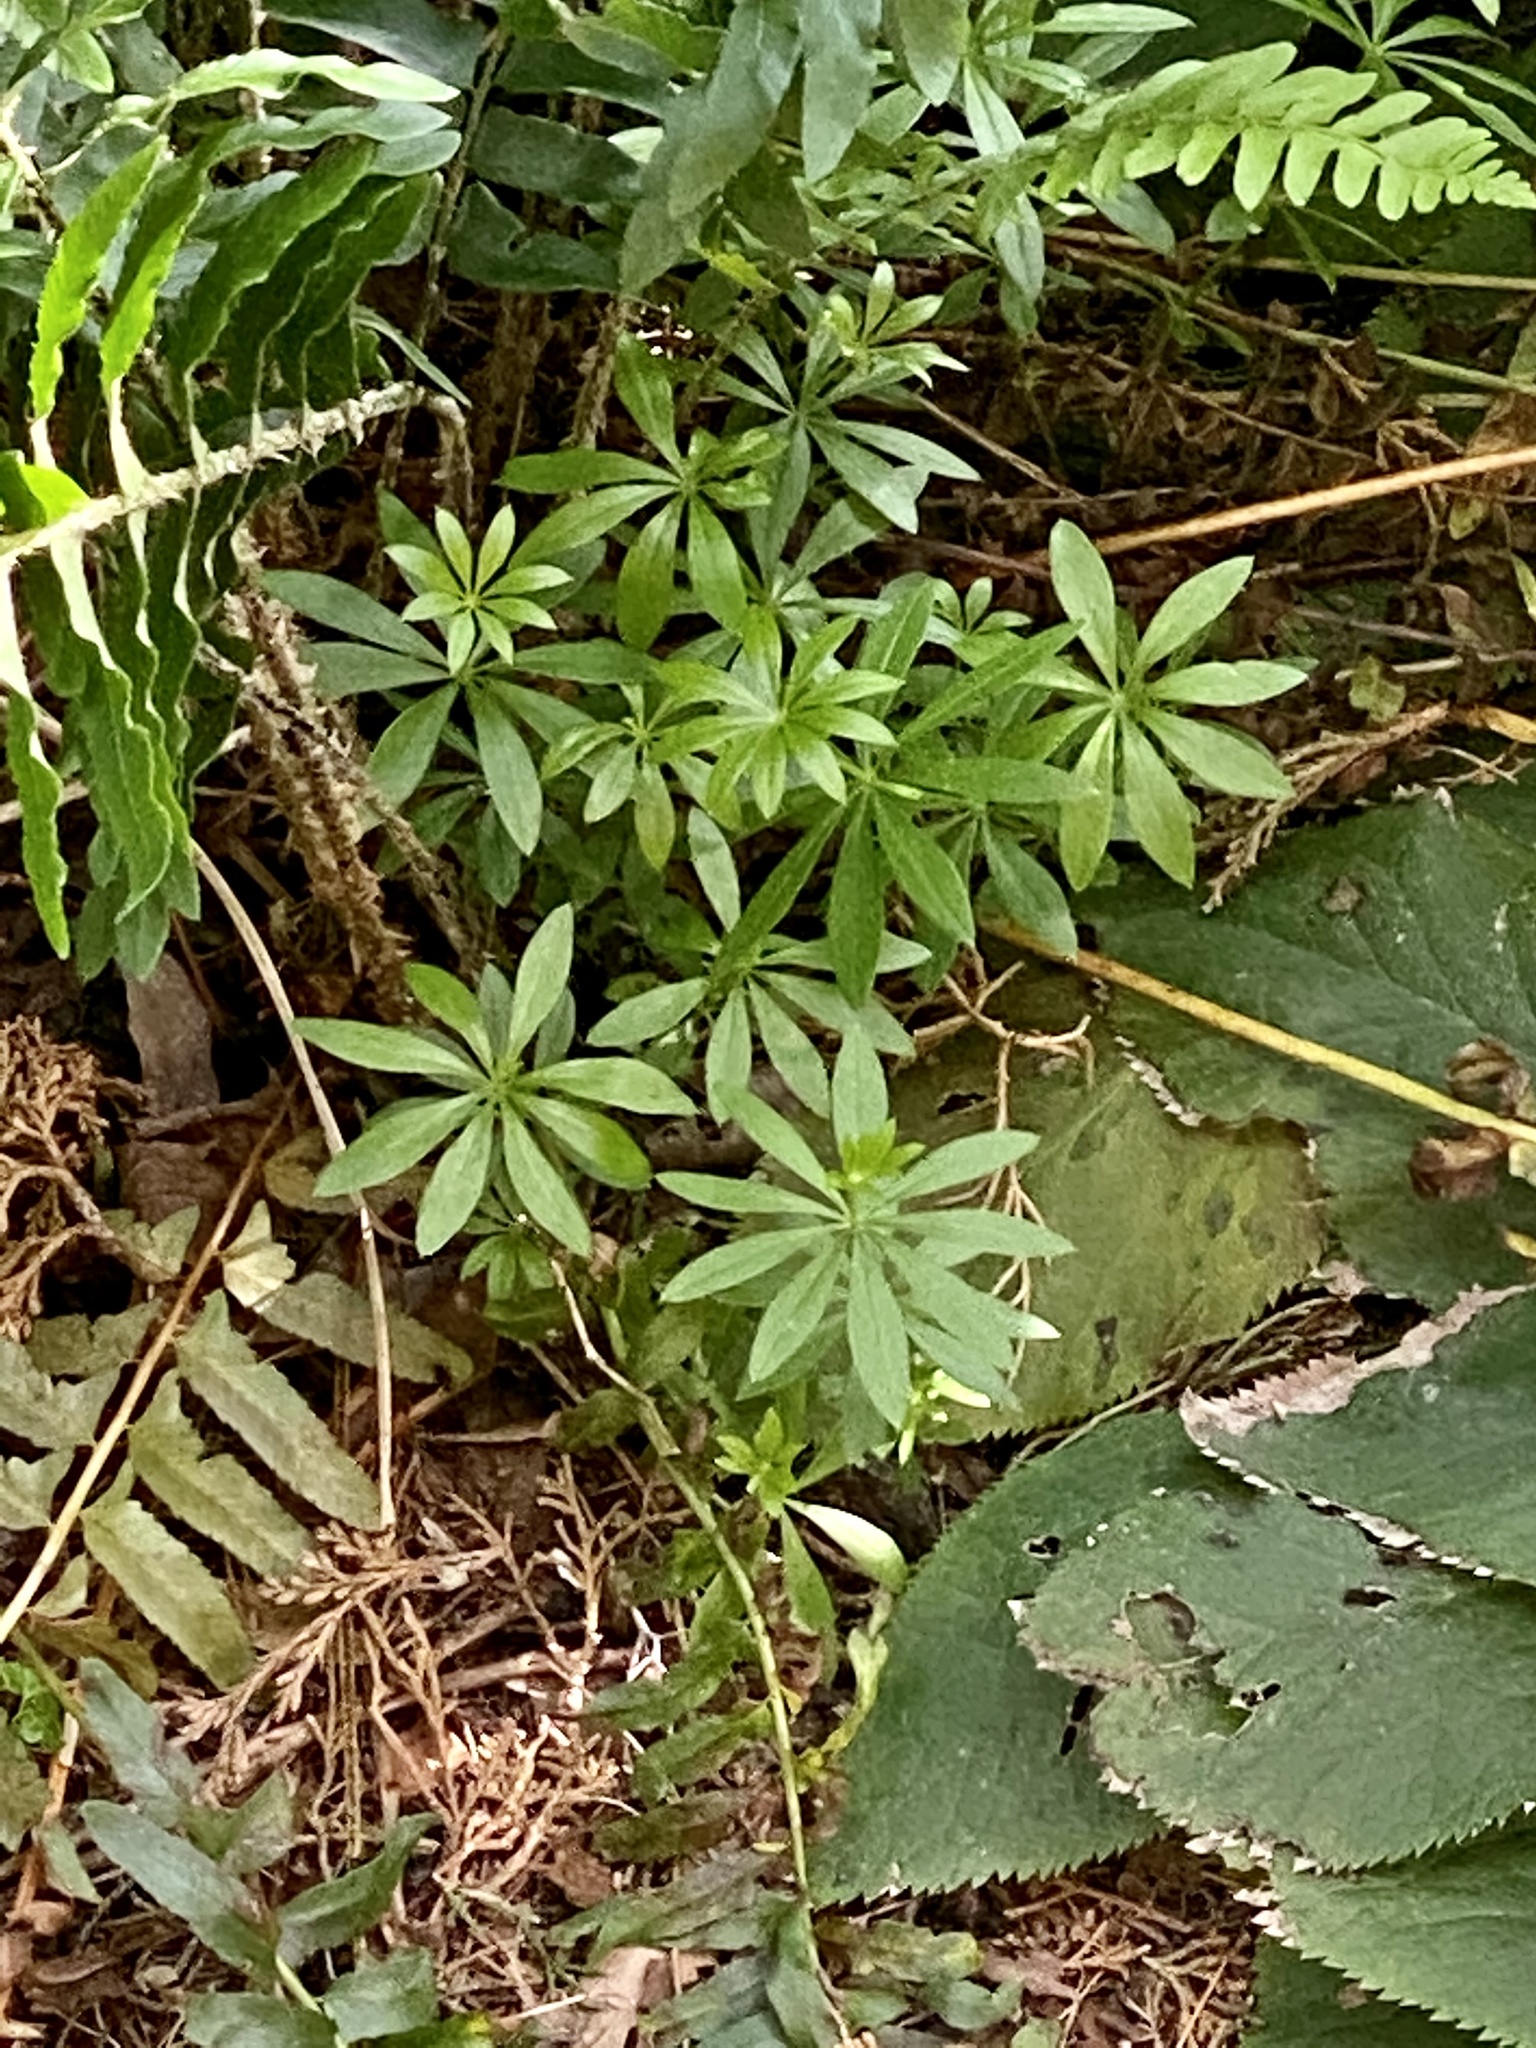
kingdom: Plantae
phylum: Tracheophyta
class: Magnoliopsida
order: Gentianales
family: Rubiaceae
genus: Galium
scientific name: Galium odoratum
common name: Sweet woodruff
